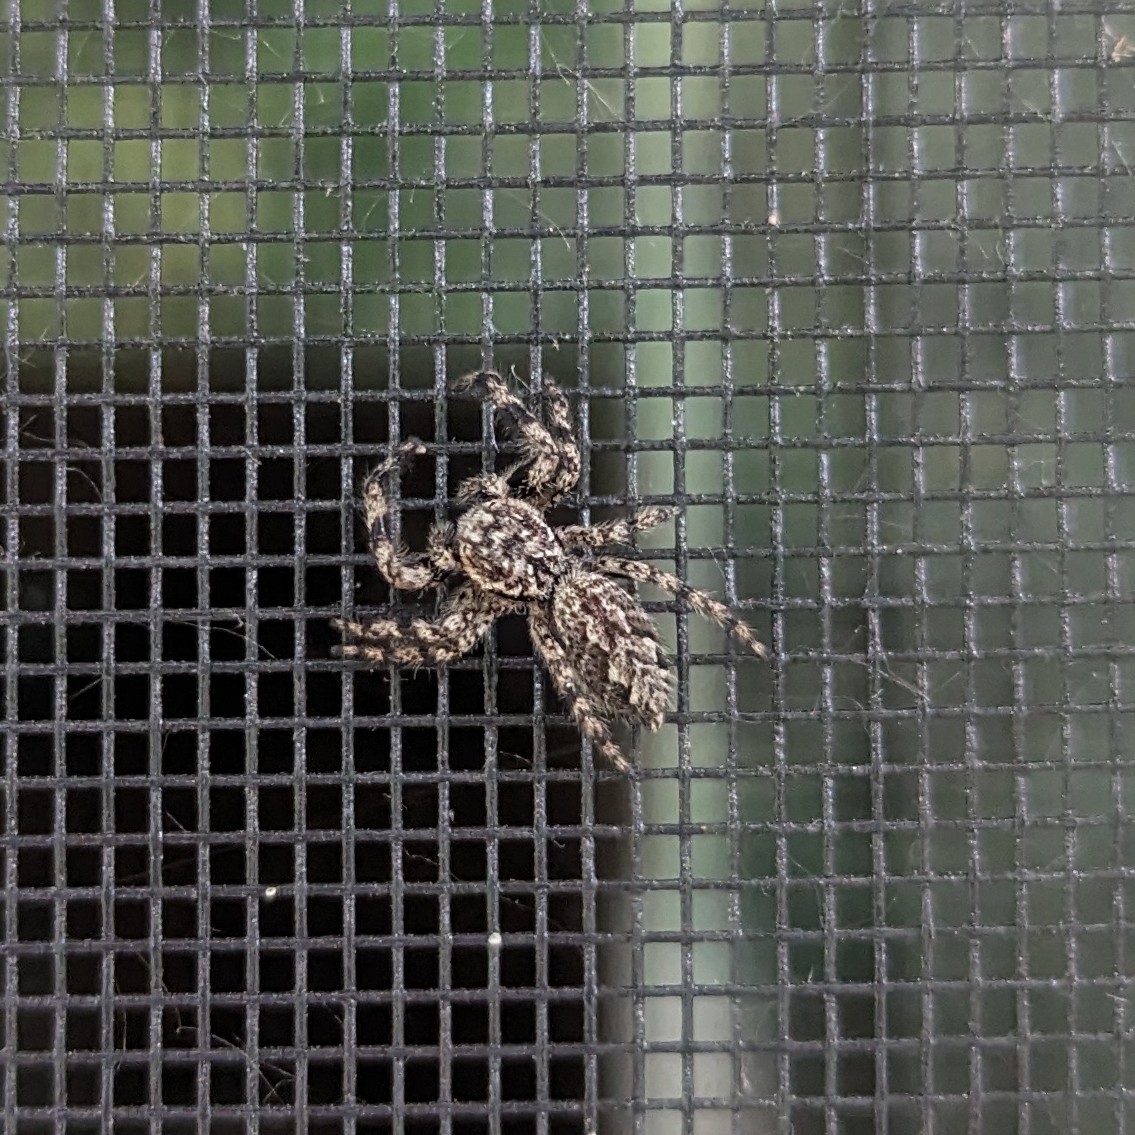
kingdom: Animalia
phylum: Arthropoda
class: Arachnida
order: Araneae
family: Salticidae
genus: Platycryptus
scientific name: Platycryptus undatus
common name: Tan jumping spider
